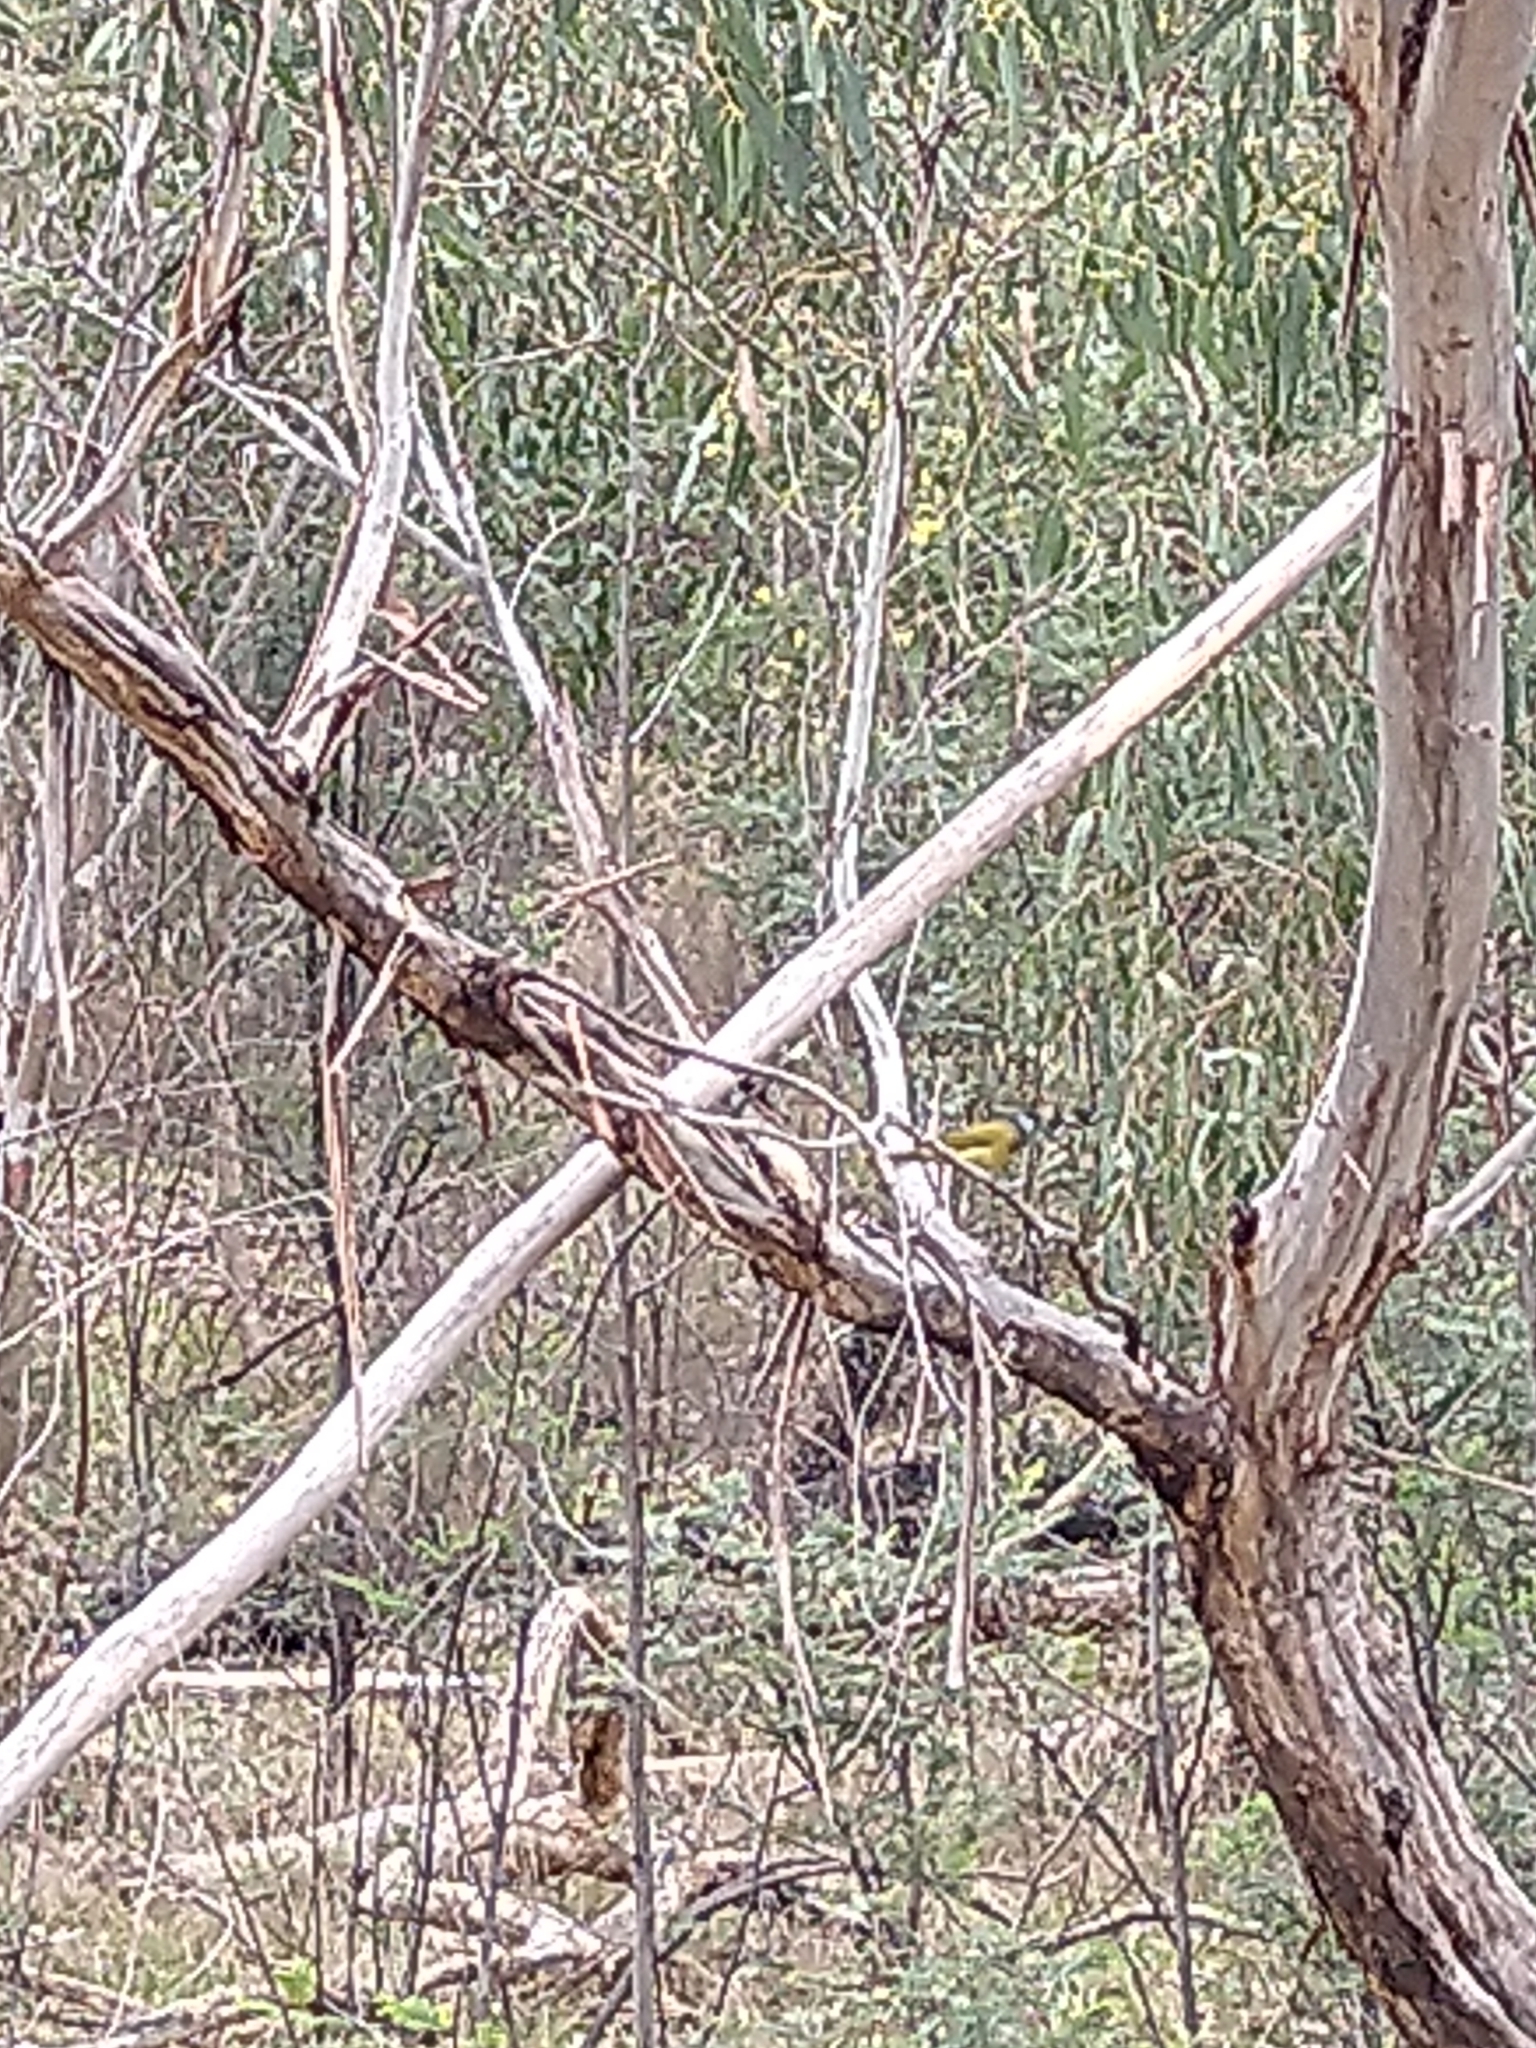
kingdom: Animalia
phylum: Chordata
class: Aves
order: Passeriformes
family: Pachycephalidae
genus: Pachycephala
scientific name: Pachycephala pectoralis
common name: Australian golden whistler
